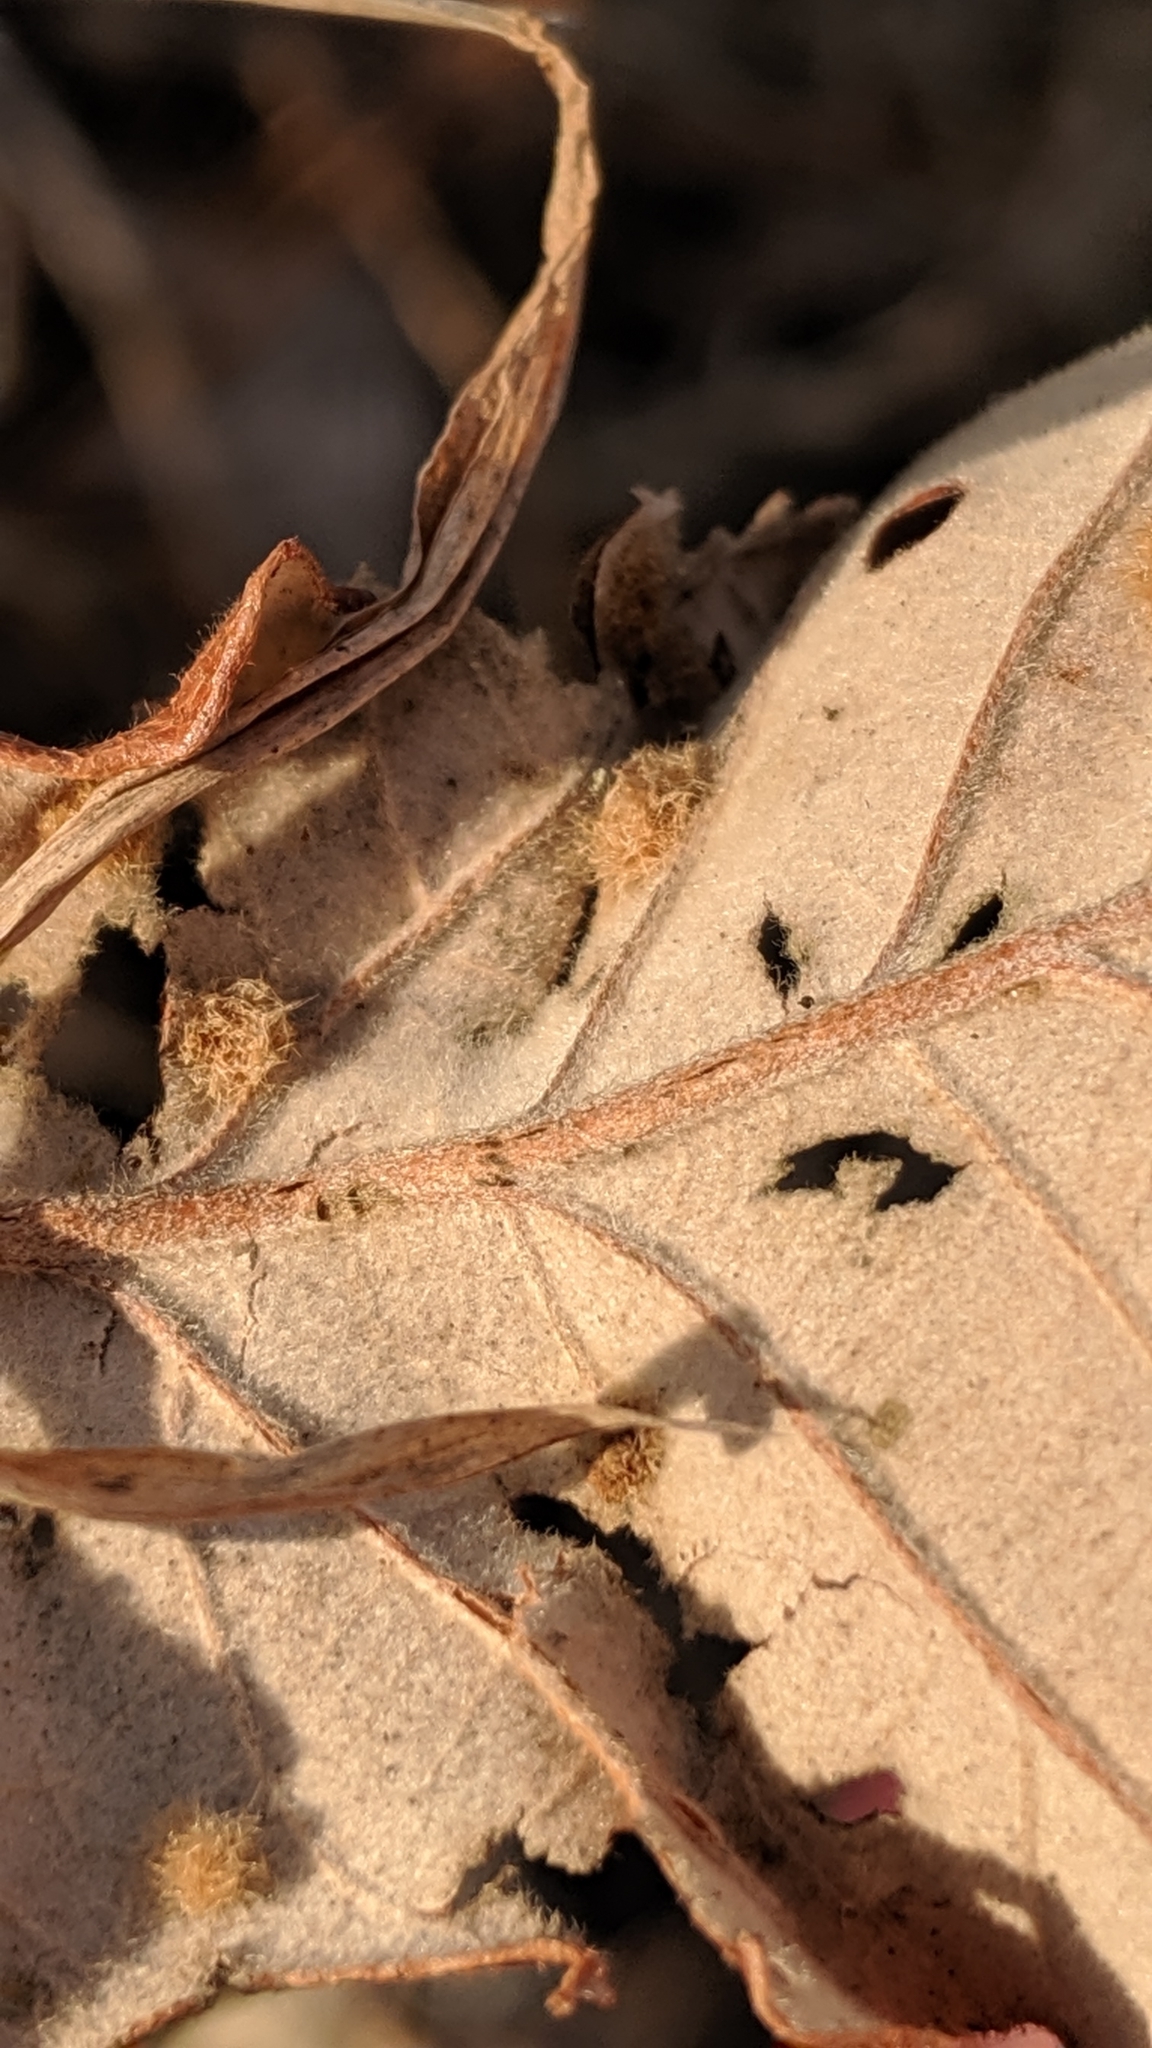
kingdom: Animalia
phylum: Arthropoda
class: Insecta
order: Hymenoptera
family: Cynipidae
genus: Neuroterus
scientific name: Neuroterus quercusverrucarum
